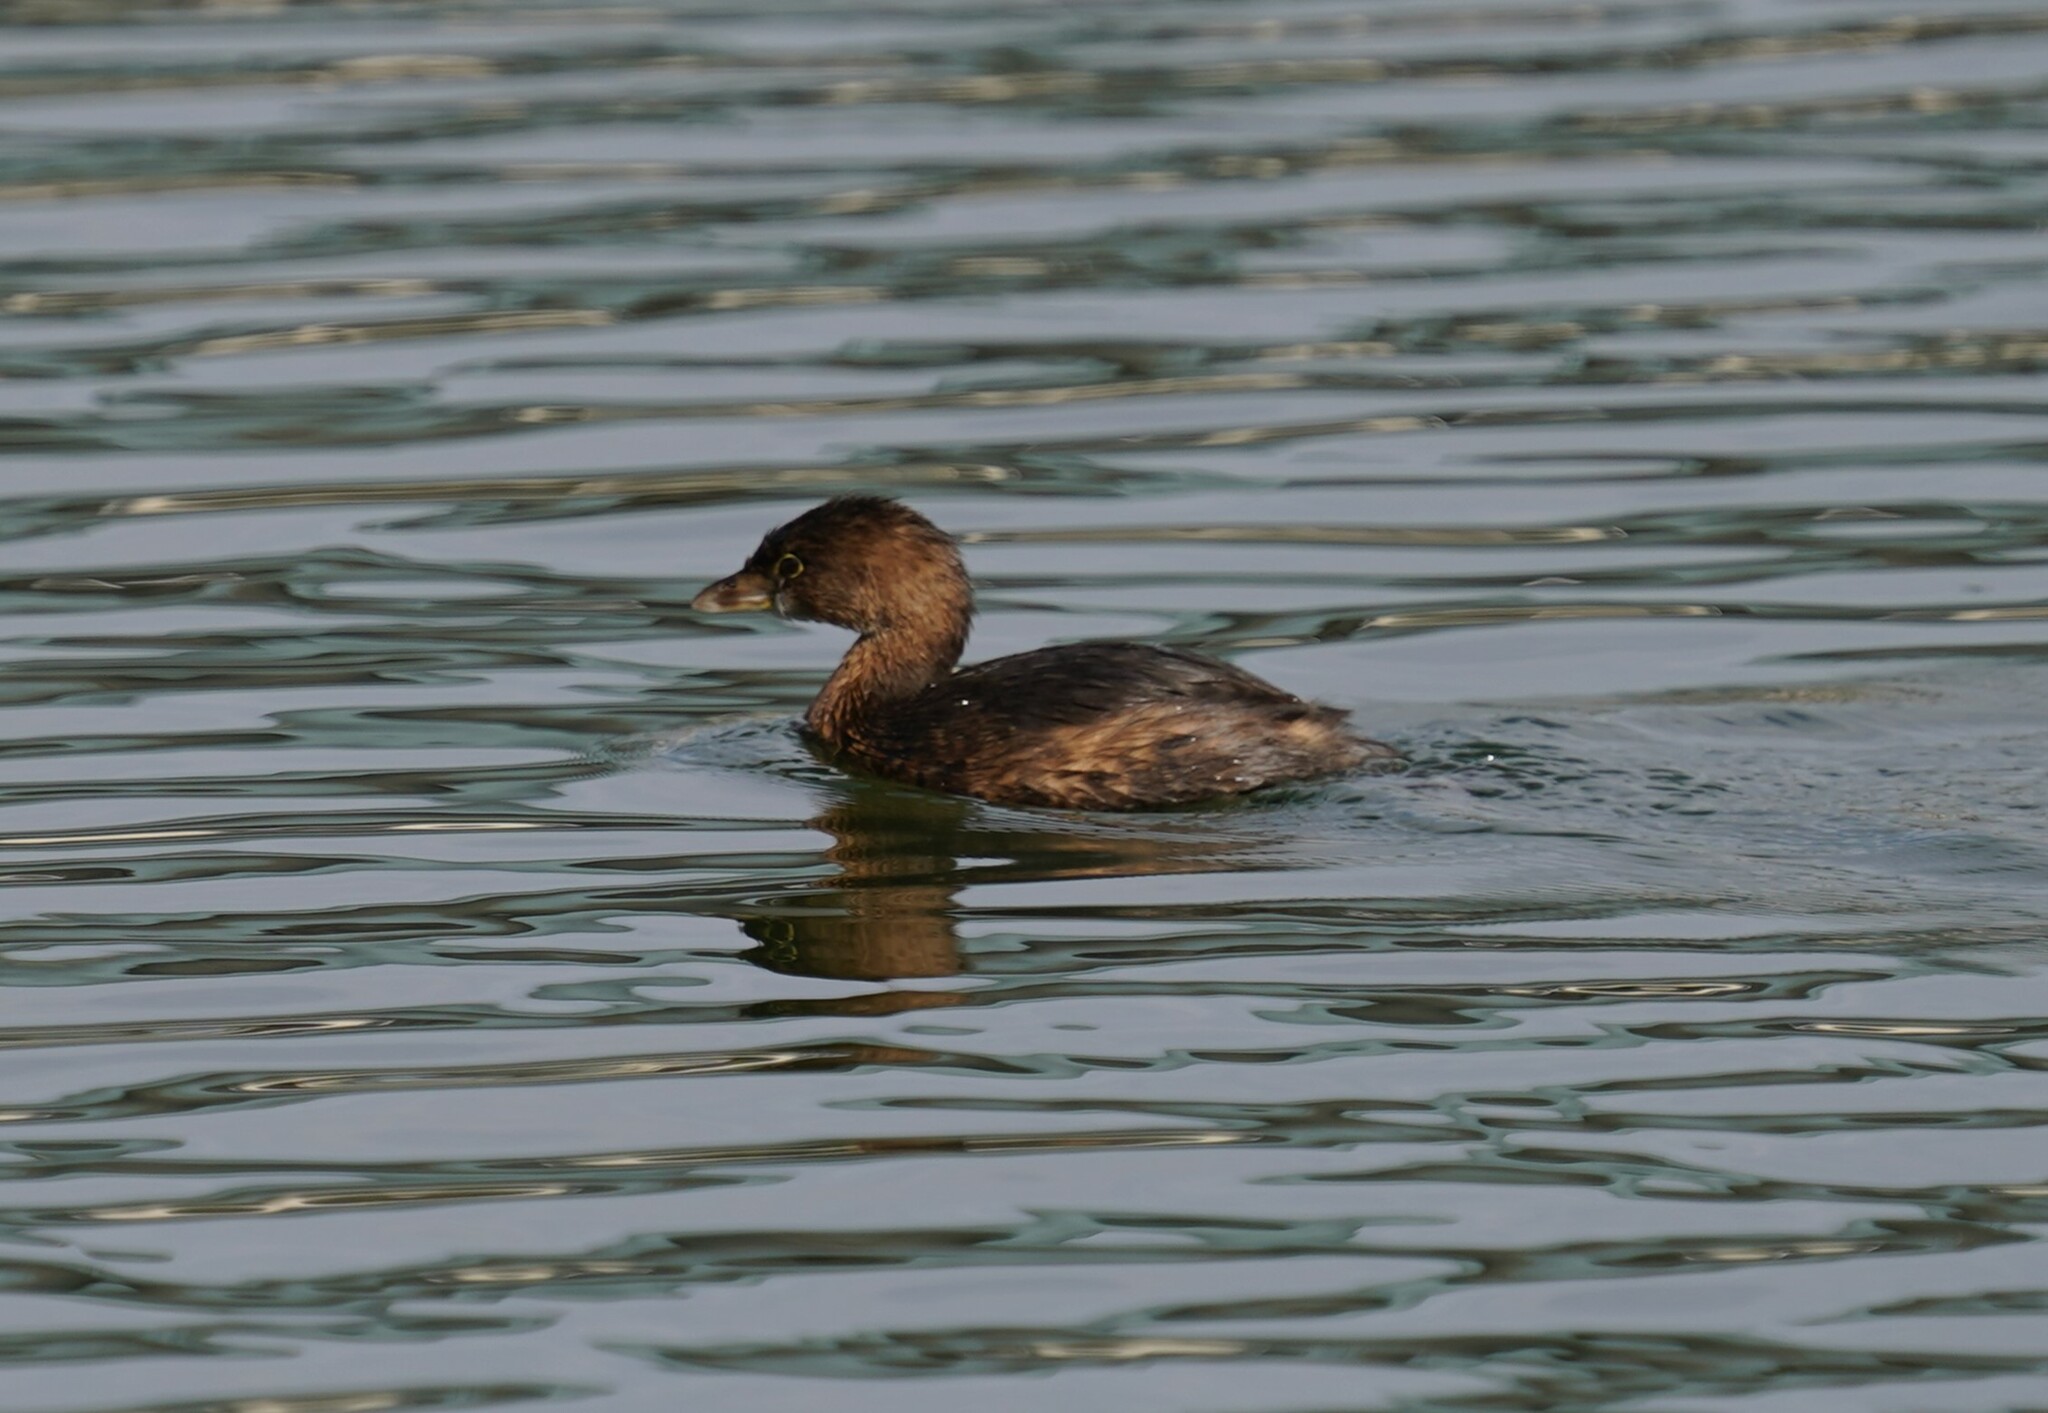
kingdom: Animalia
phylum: Chordata
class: Aves
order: Podicipediformes
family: Podicipedidae
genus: Podilymbus
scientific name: Podilymbus podiceps
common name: Pied-billed grebe
